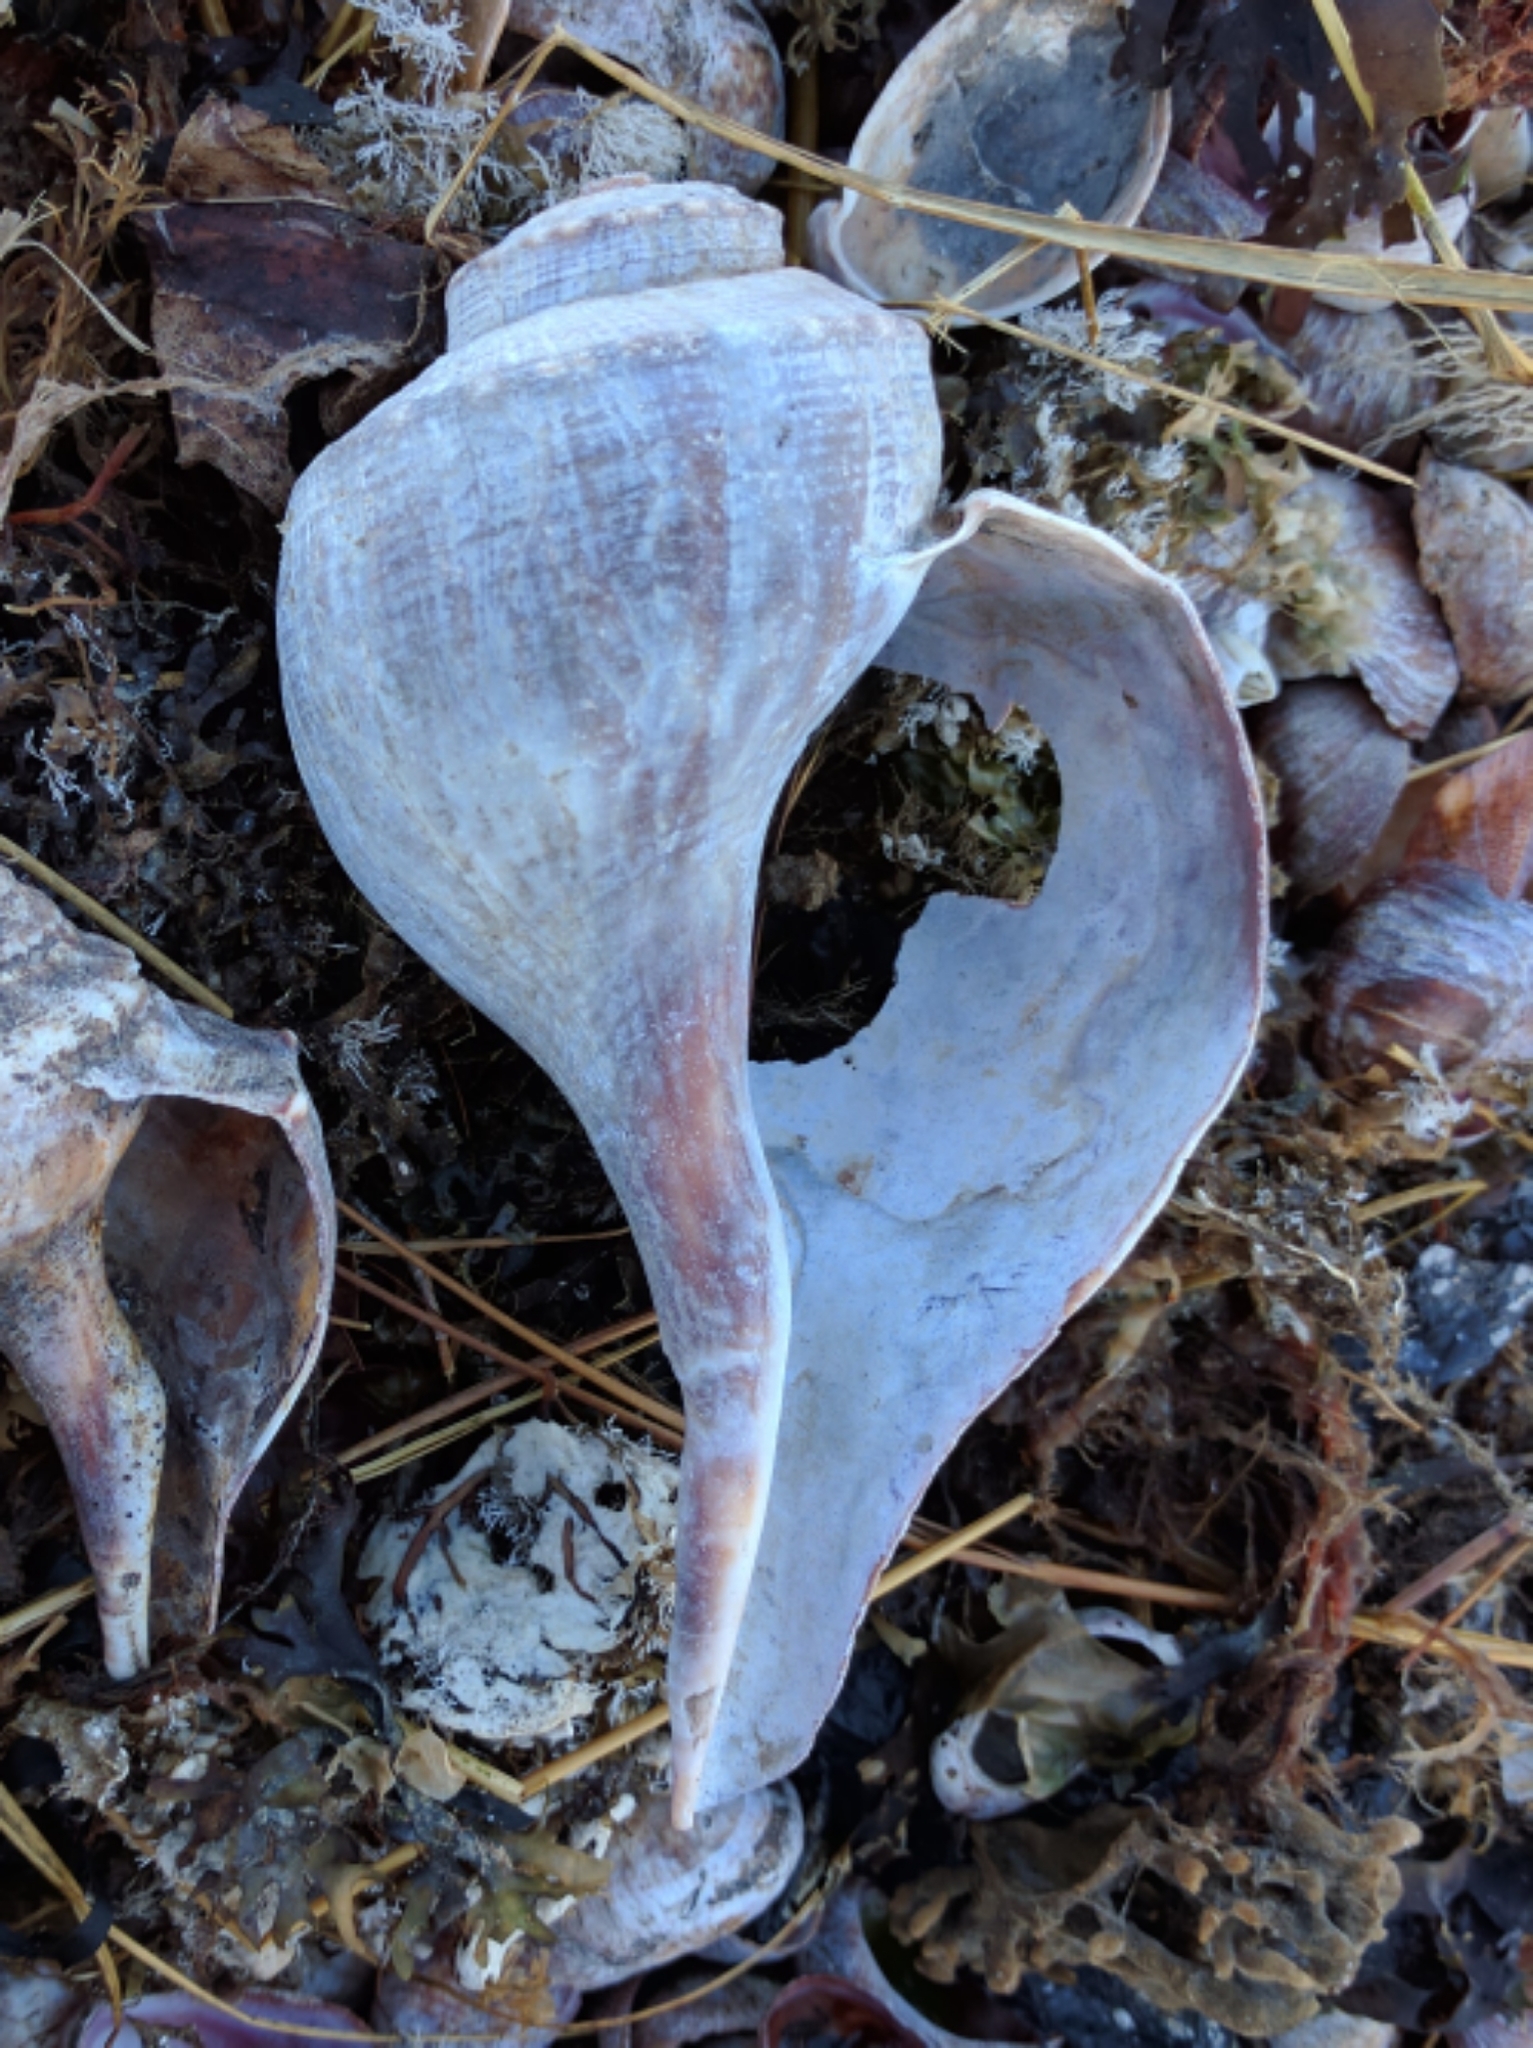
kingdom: Animalia
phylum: Mollusca
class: Gastropoda
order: Neogastropoda
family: Busyconidae
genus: Busycotypus
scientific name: Busycotypus canaliculatus
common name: Channeled whelk
